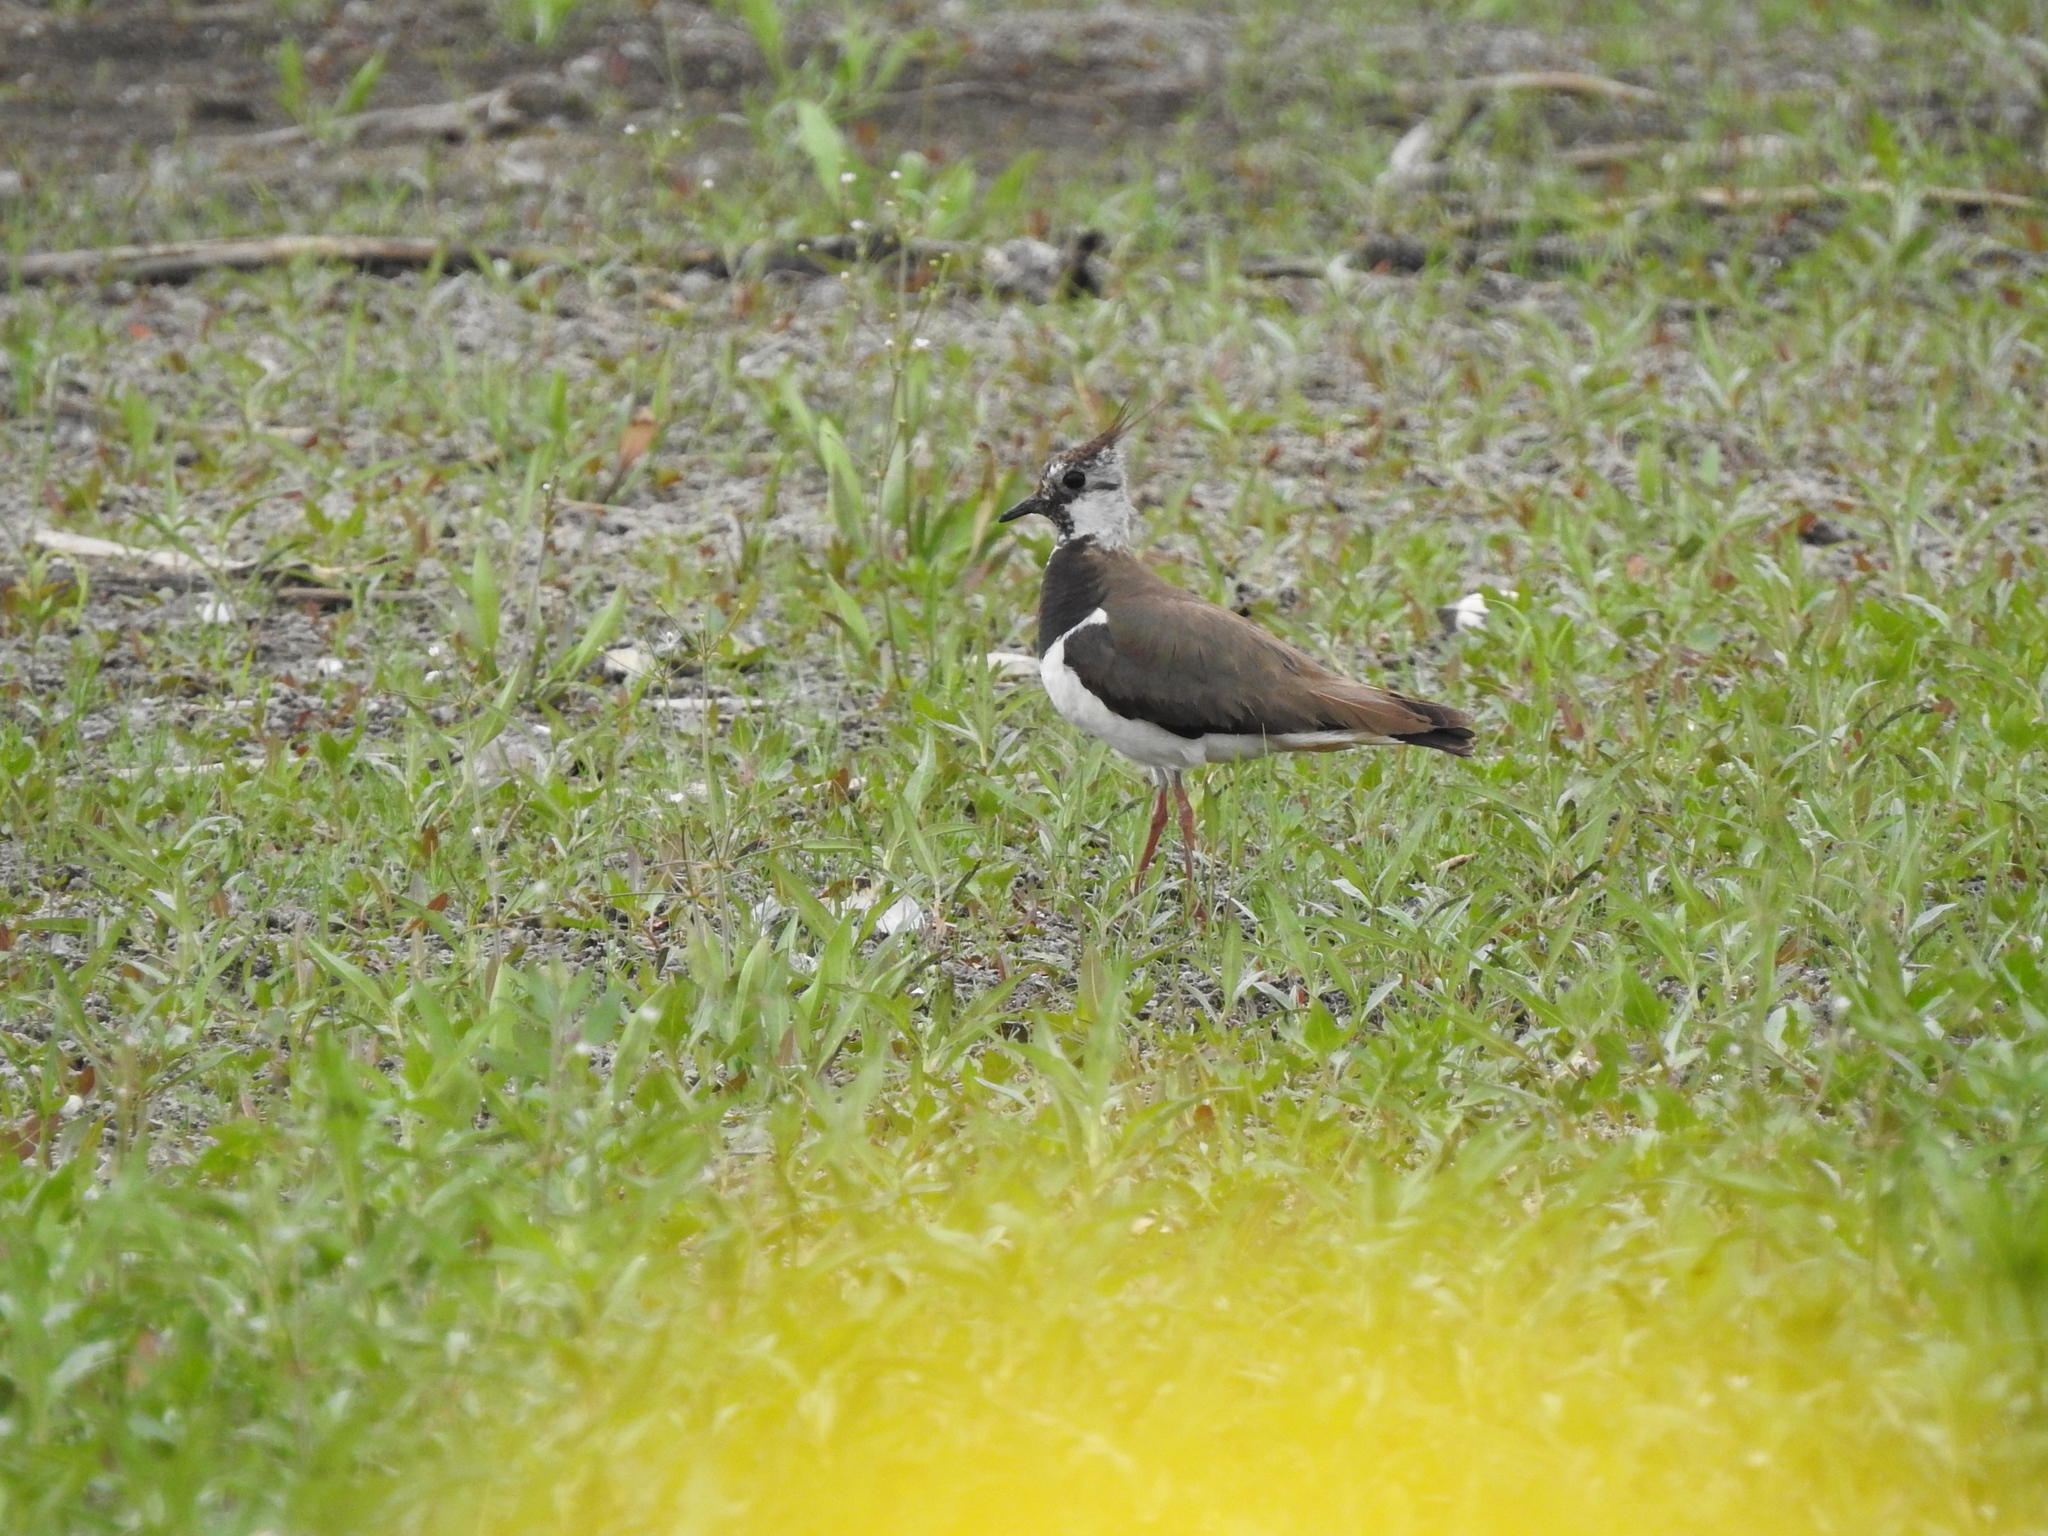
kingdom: Animalia
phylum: Chordata
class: Aves
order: Charadriiformes
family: Charadriidae
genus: Vanellus
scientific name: Vanellus vanellus
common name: Northern lapwing
